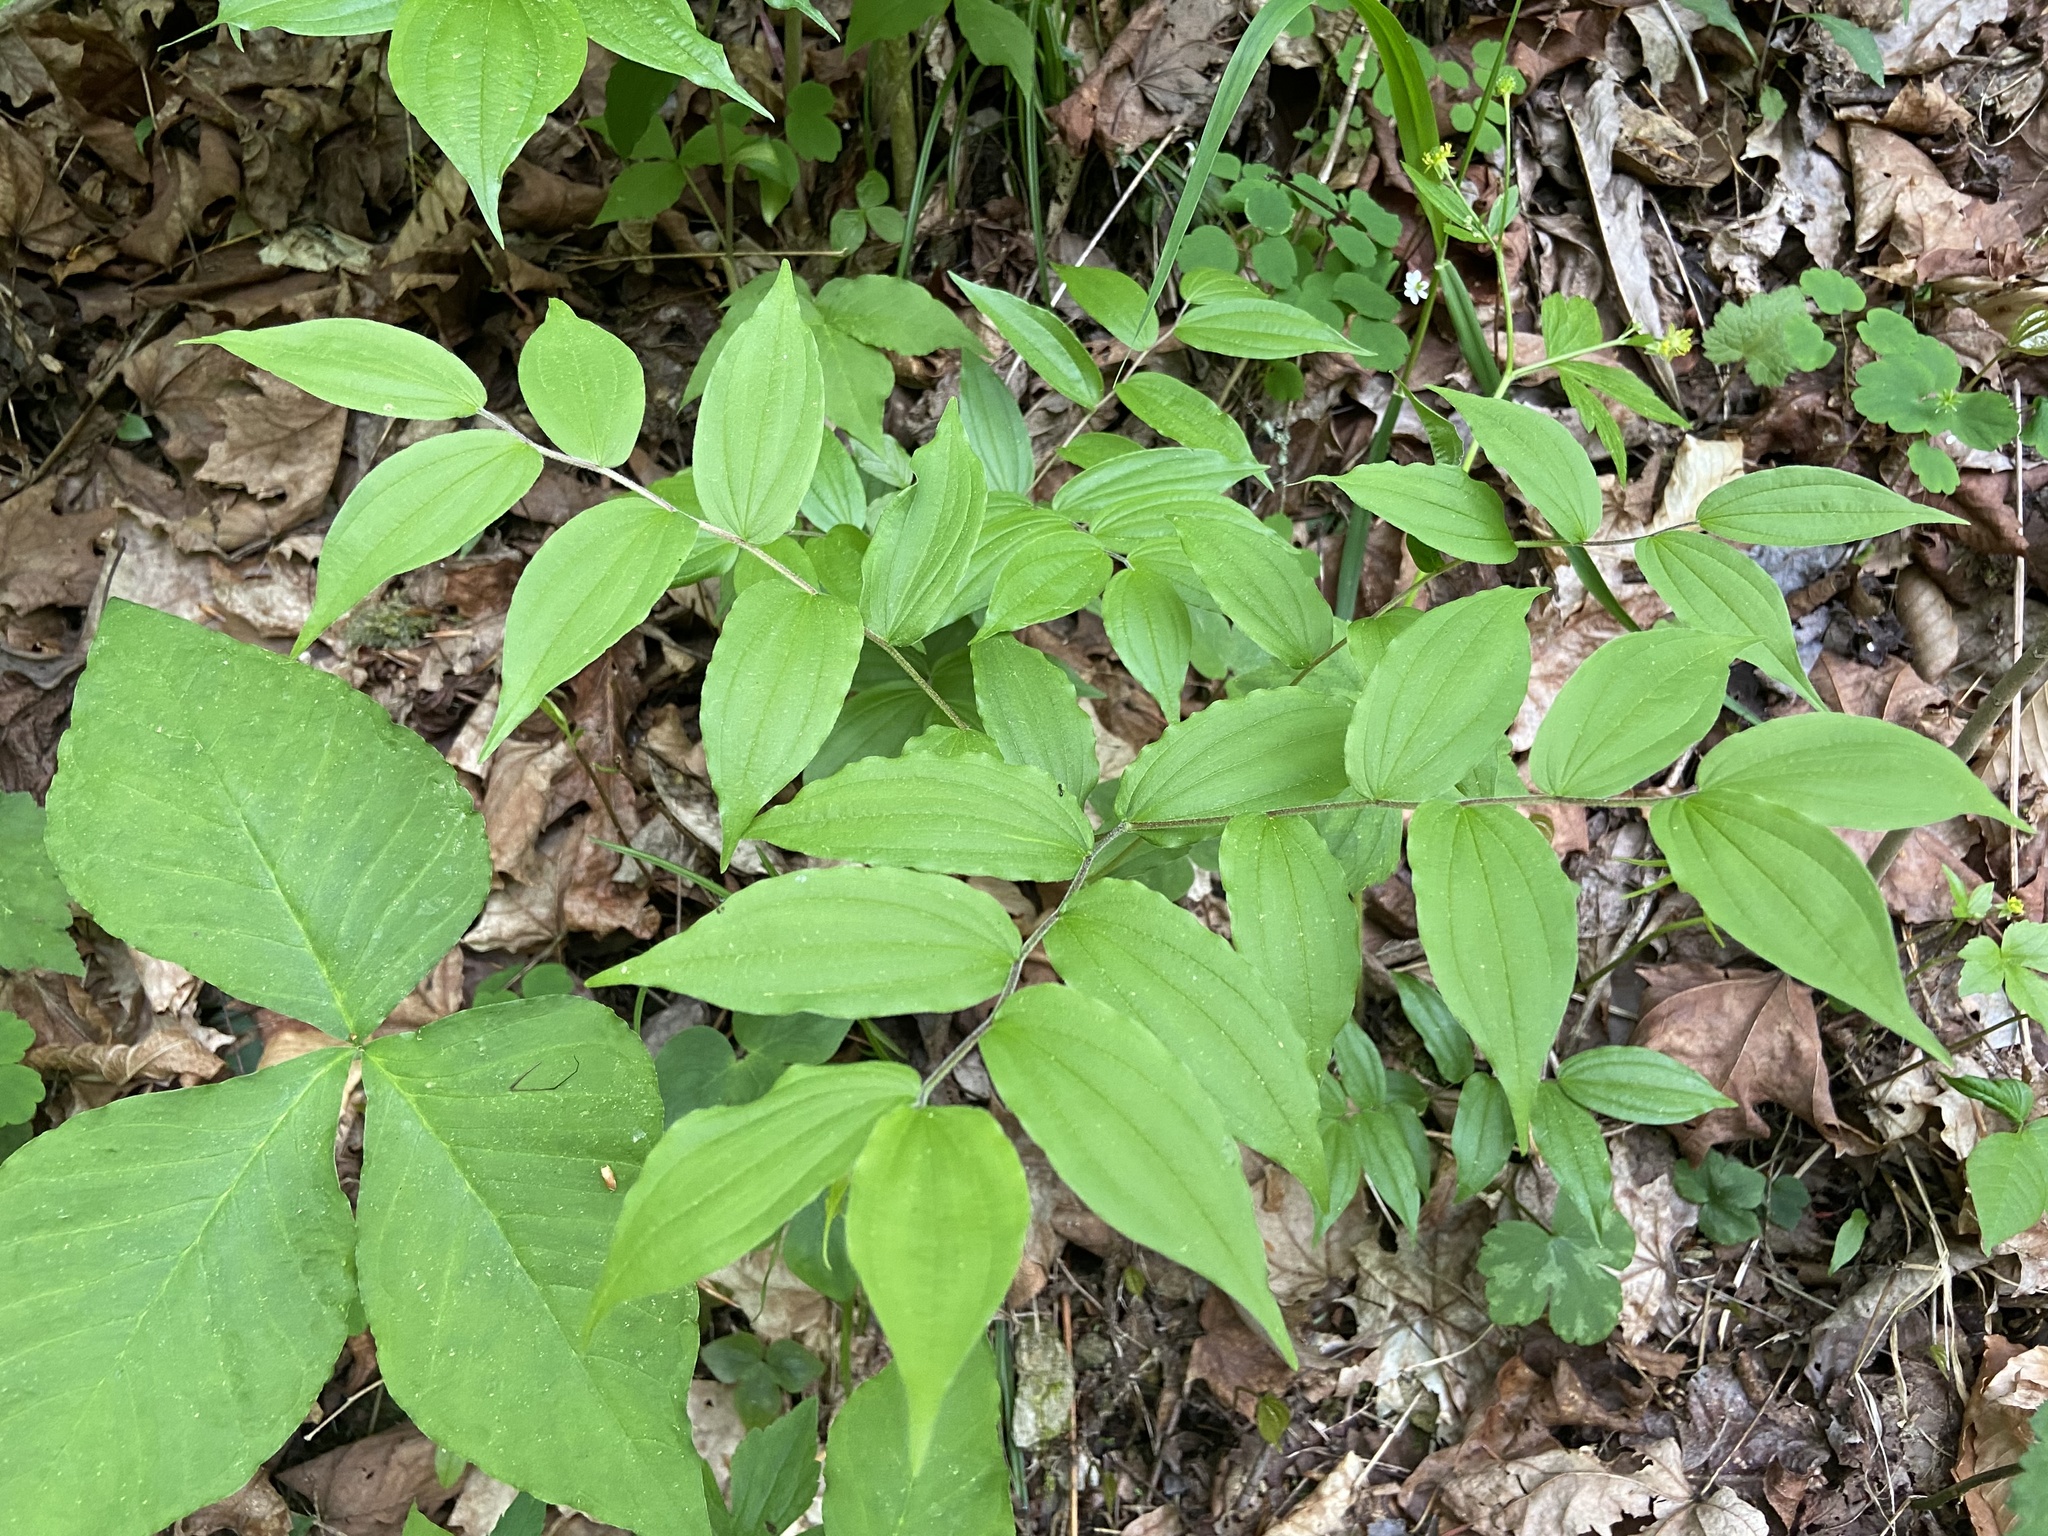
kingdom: Plantae
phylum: Tracheophyta
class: Liliopsida
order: Liliales
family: Liliaceae
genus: Prosartes
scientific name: Prosartes lanuginosa
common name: Hairy mandarin
